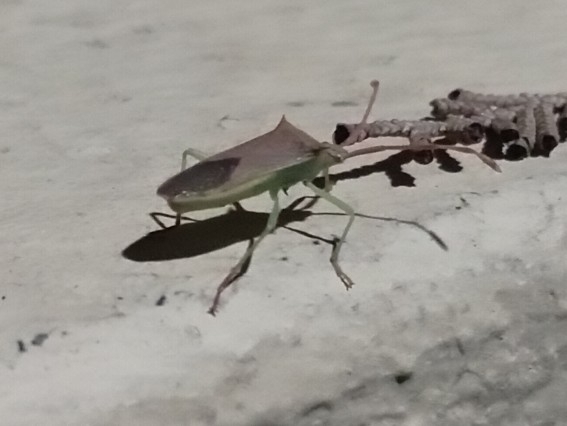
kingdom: Animalia
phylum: Arthropoda
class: Insecta
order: Hemiptera
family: Coreidae
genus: Plinachtus
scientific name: Plinachtus imitator
